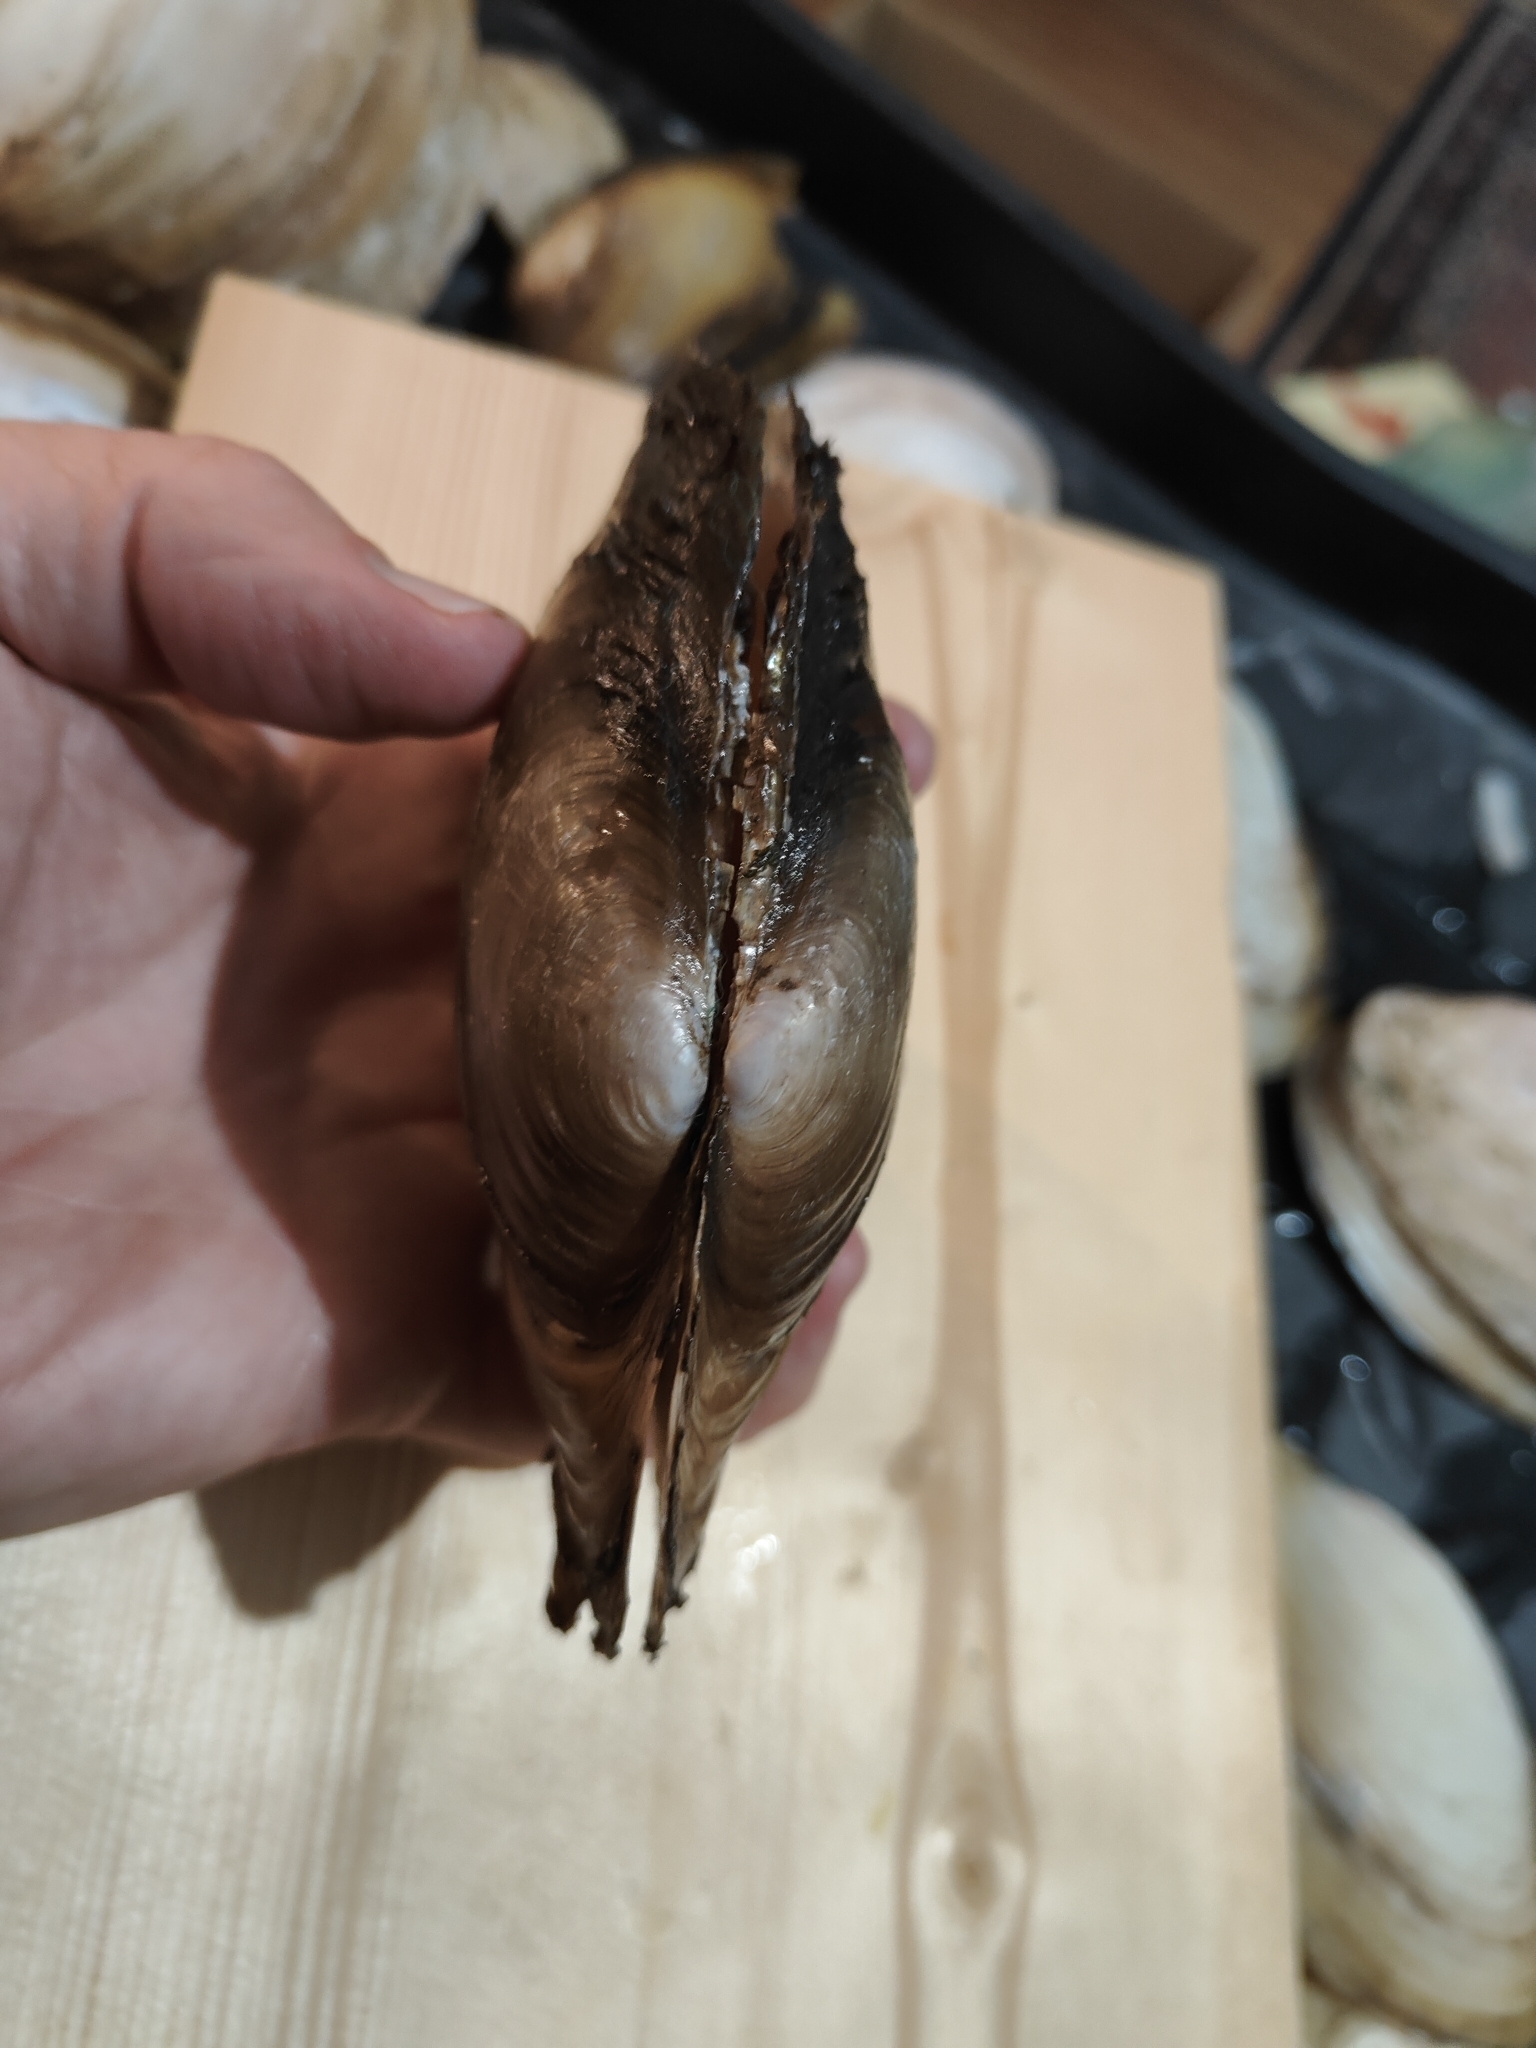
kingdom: Animalia
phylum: Mollusca
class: Bivalvia
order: Unionida
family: Unionidae
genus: Potamilus
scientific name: Potamilus ohiensis
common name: Pink papershell
